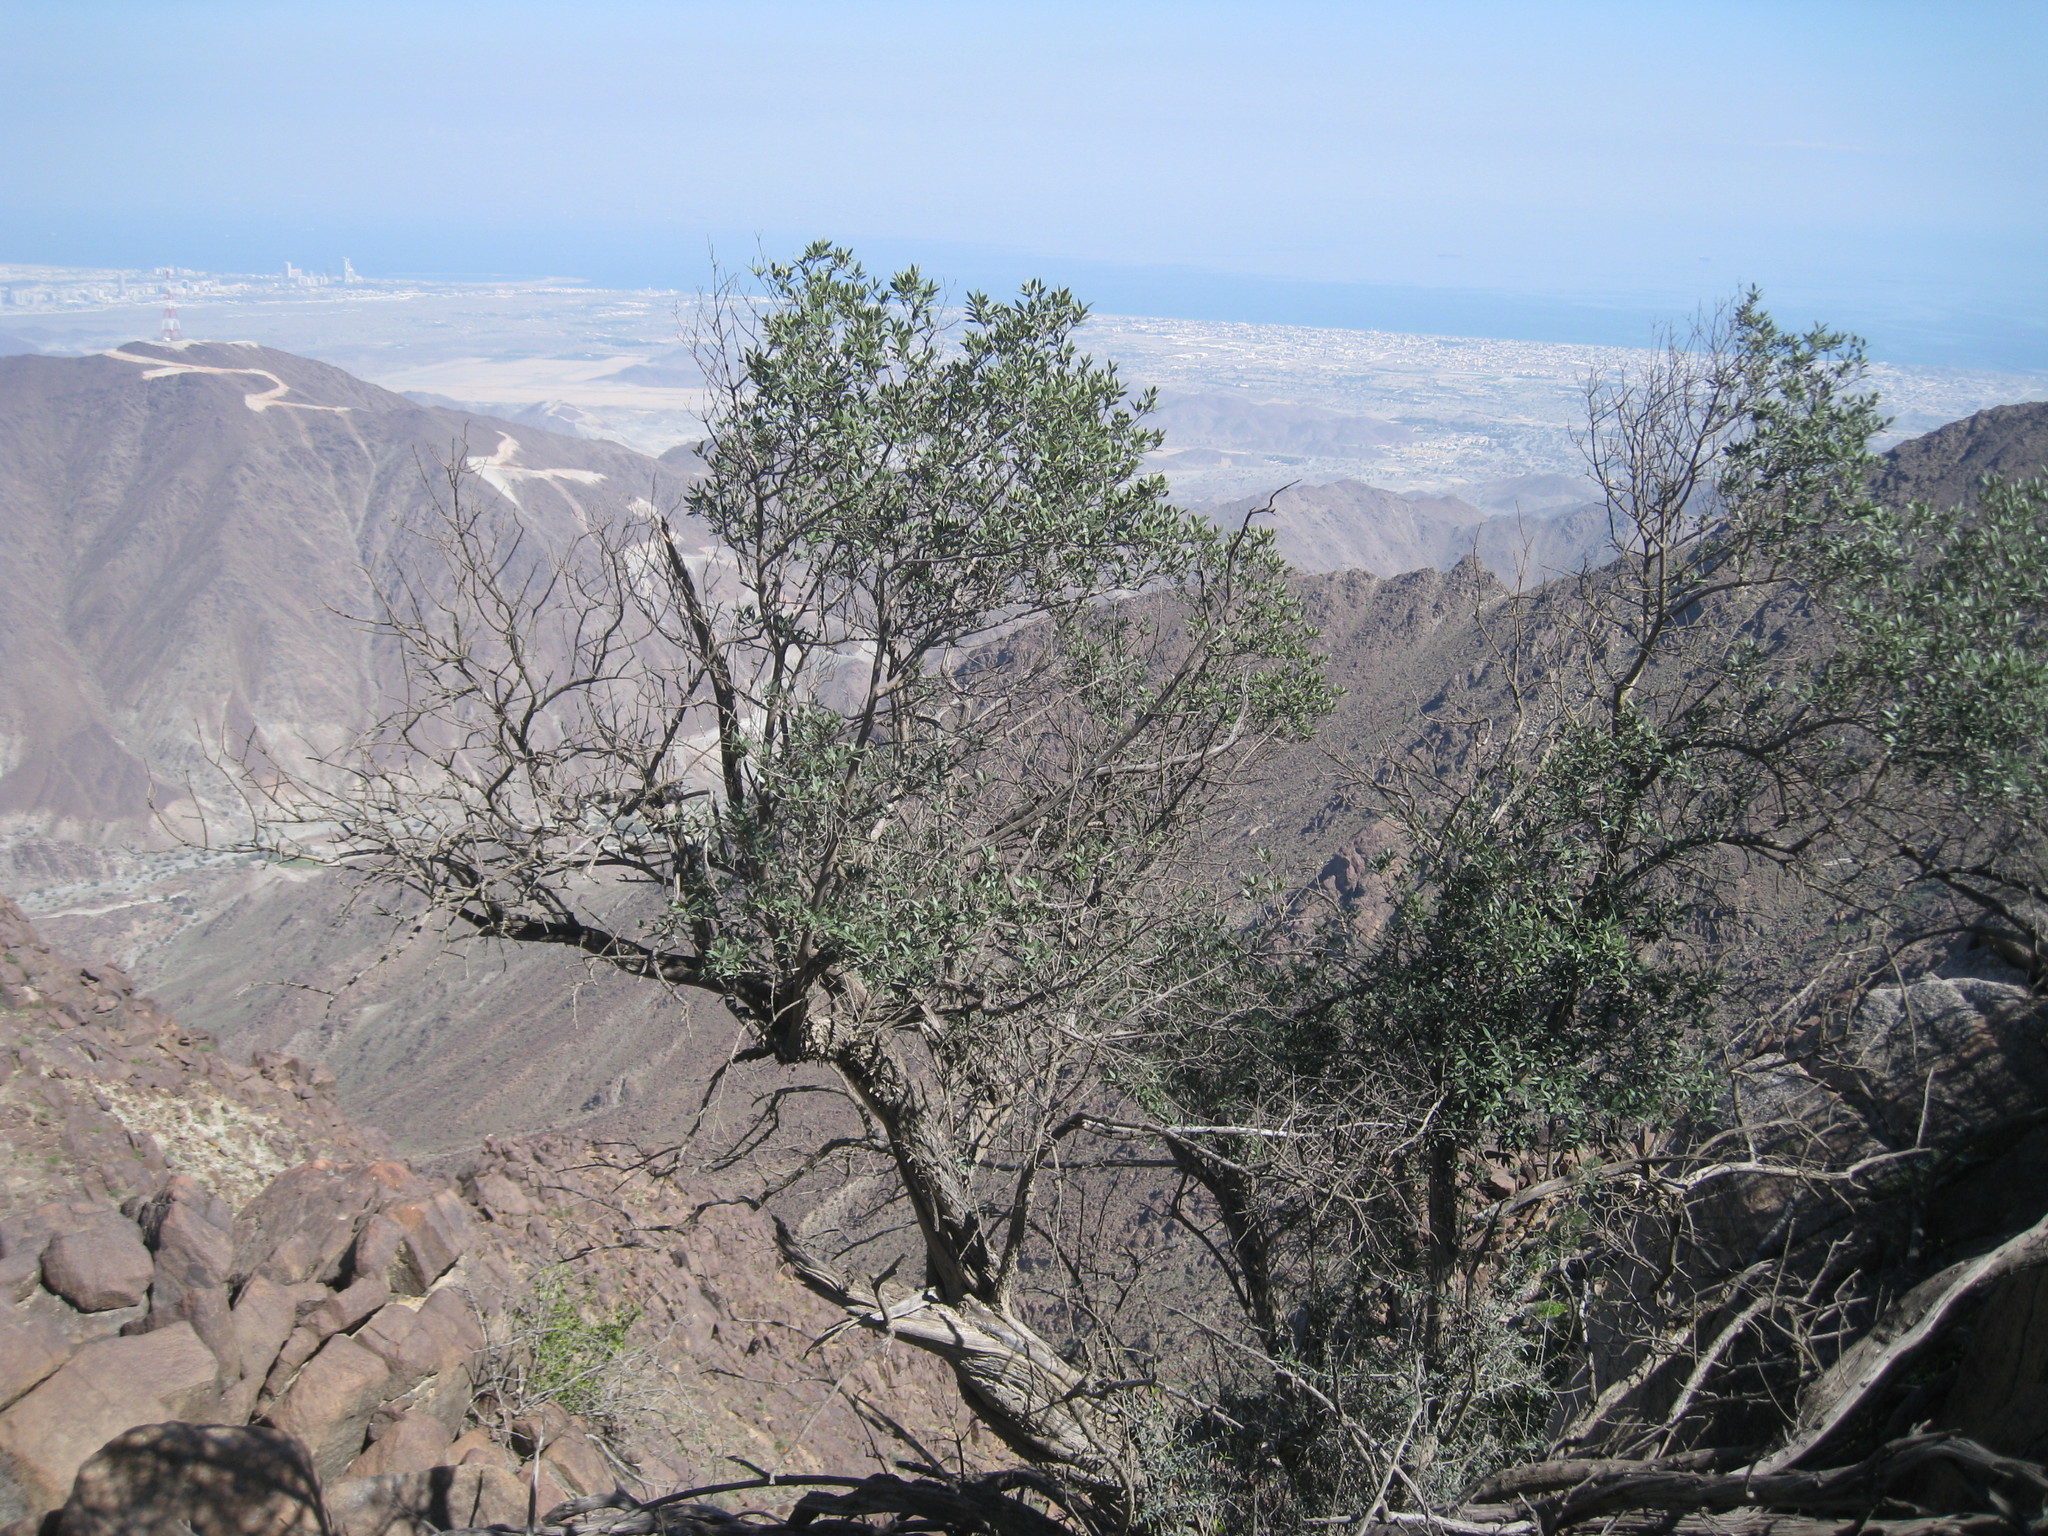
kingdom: Plantae
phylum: Tracheophyta
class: Magnoliopsida
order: Lamiales
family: Oleaceae
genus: Olea
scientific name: Olea europaea
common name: Olive
